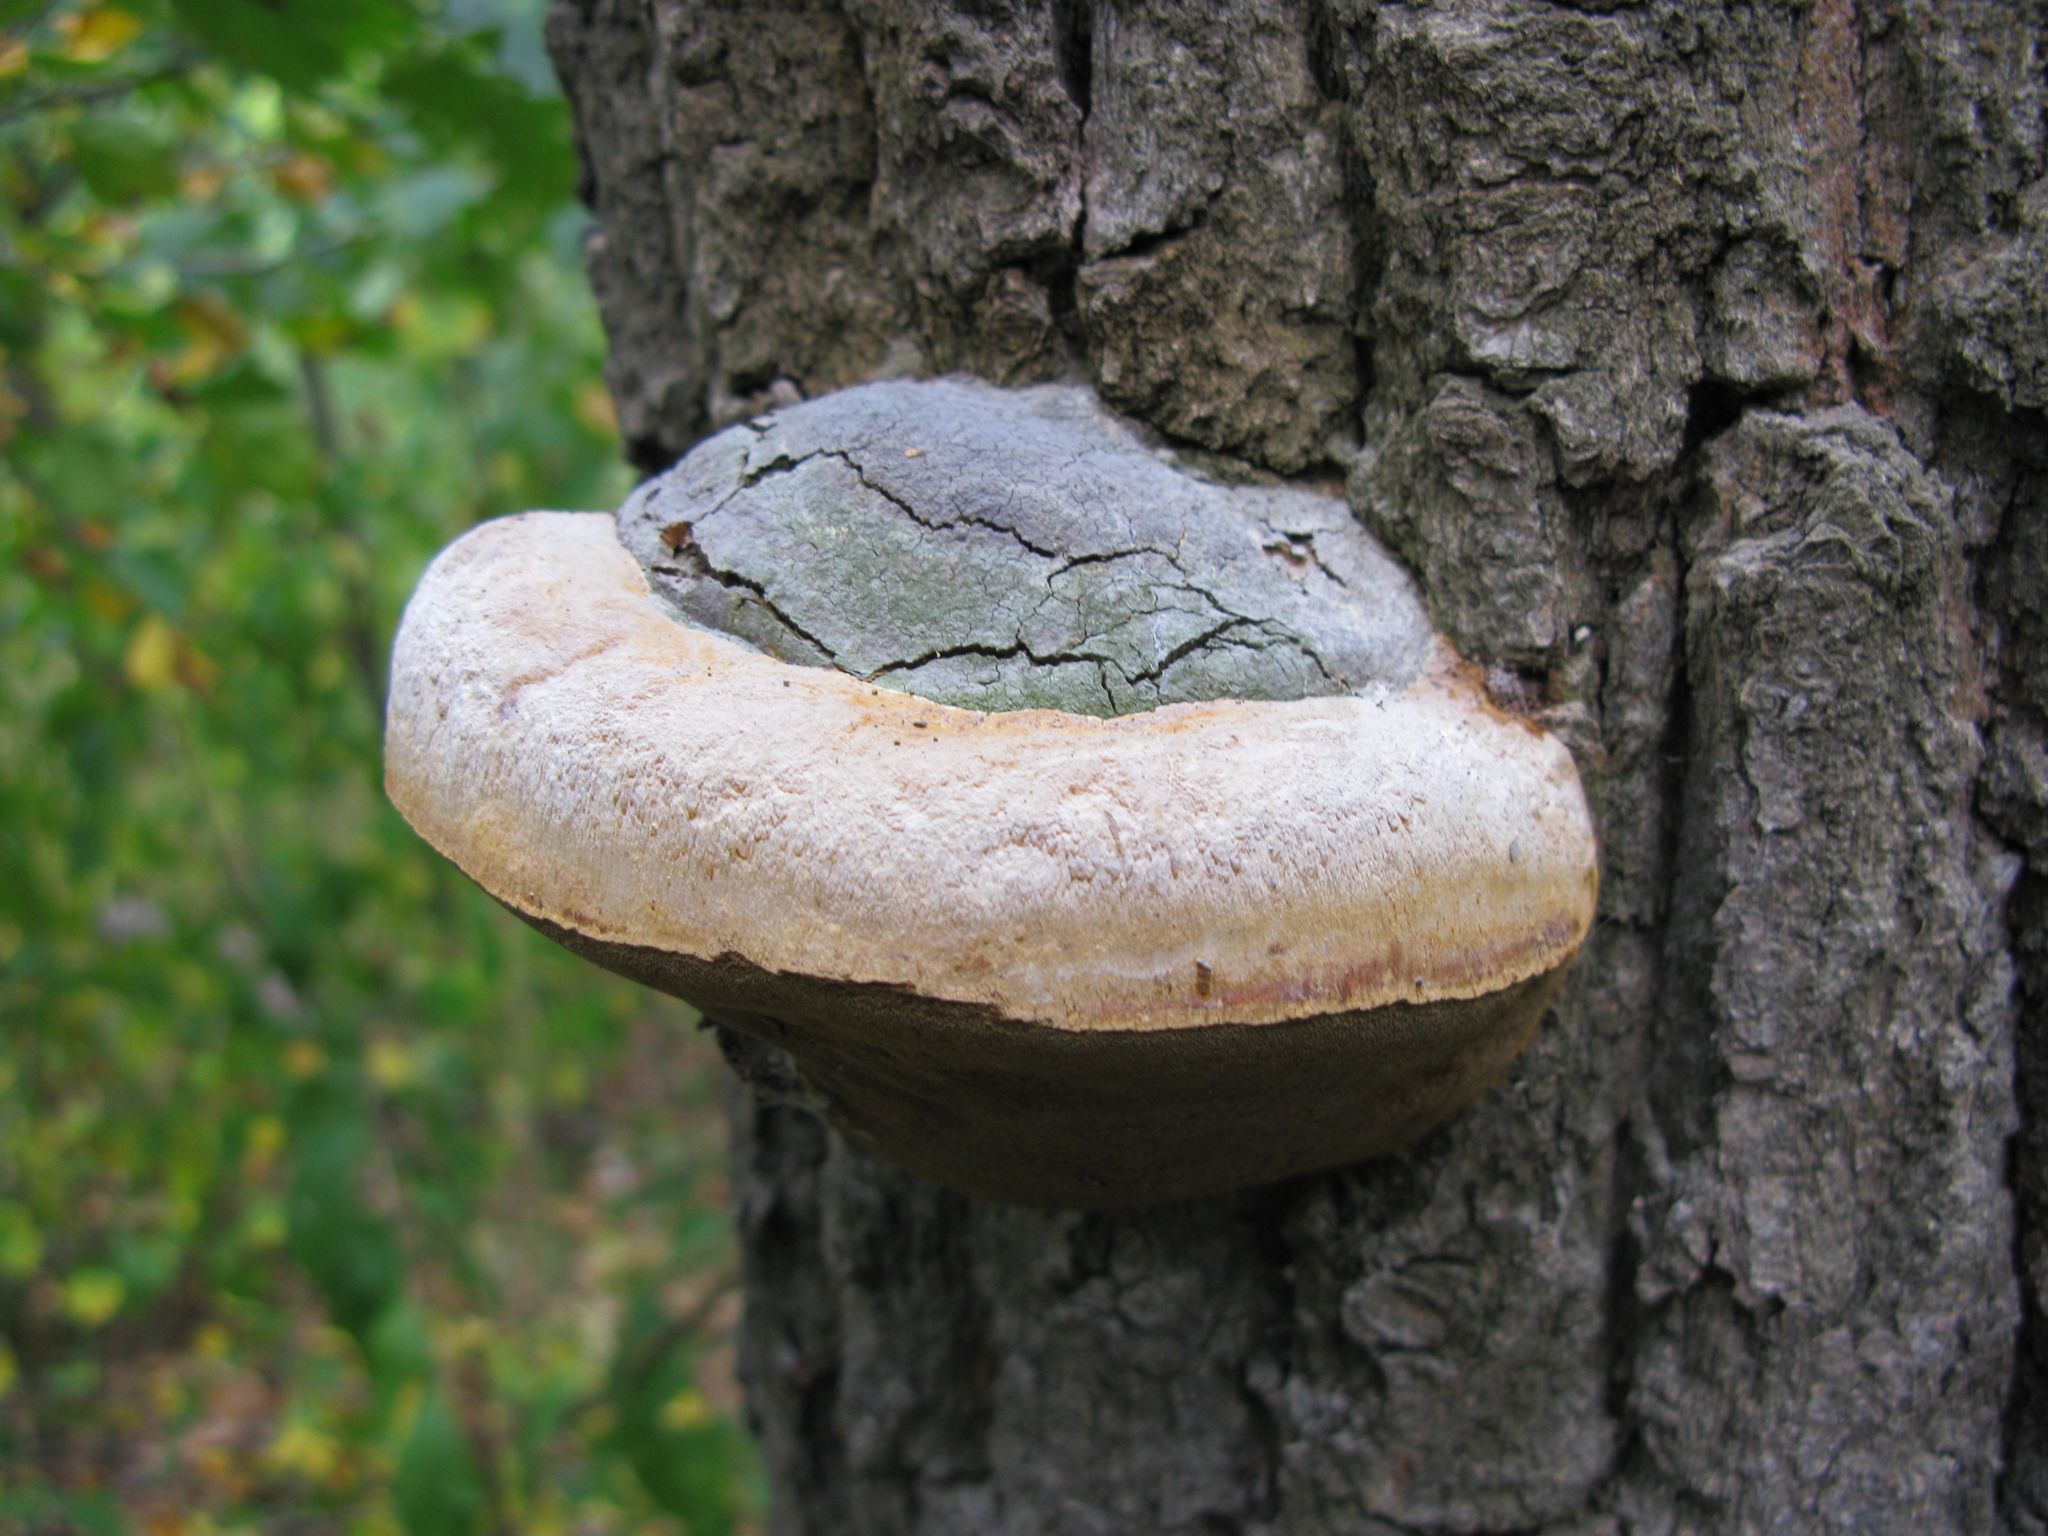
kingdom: Fungi
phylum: Basidiomycota
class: Agaricomycetes
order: Hymenochaetales
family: Hymenochaetaceae
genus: Phellinus
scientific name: Phellinus igniarius
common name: Willow bracket
